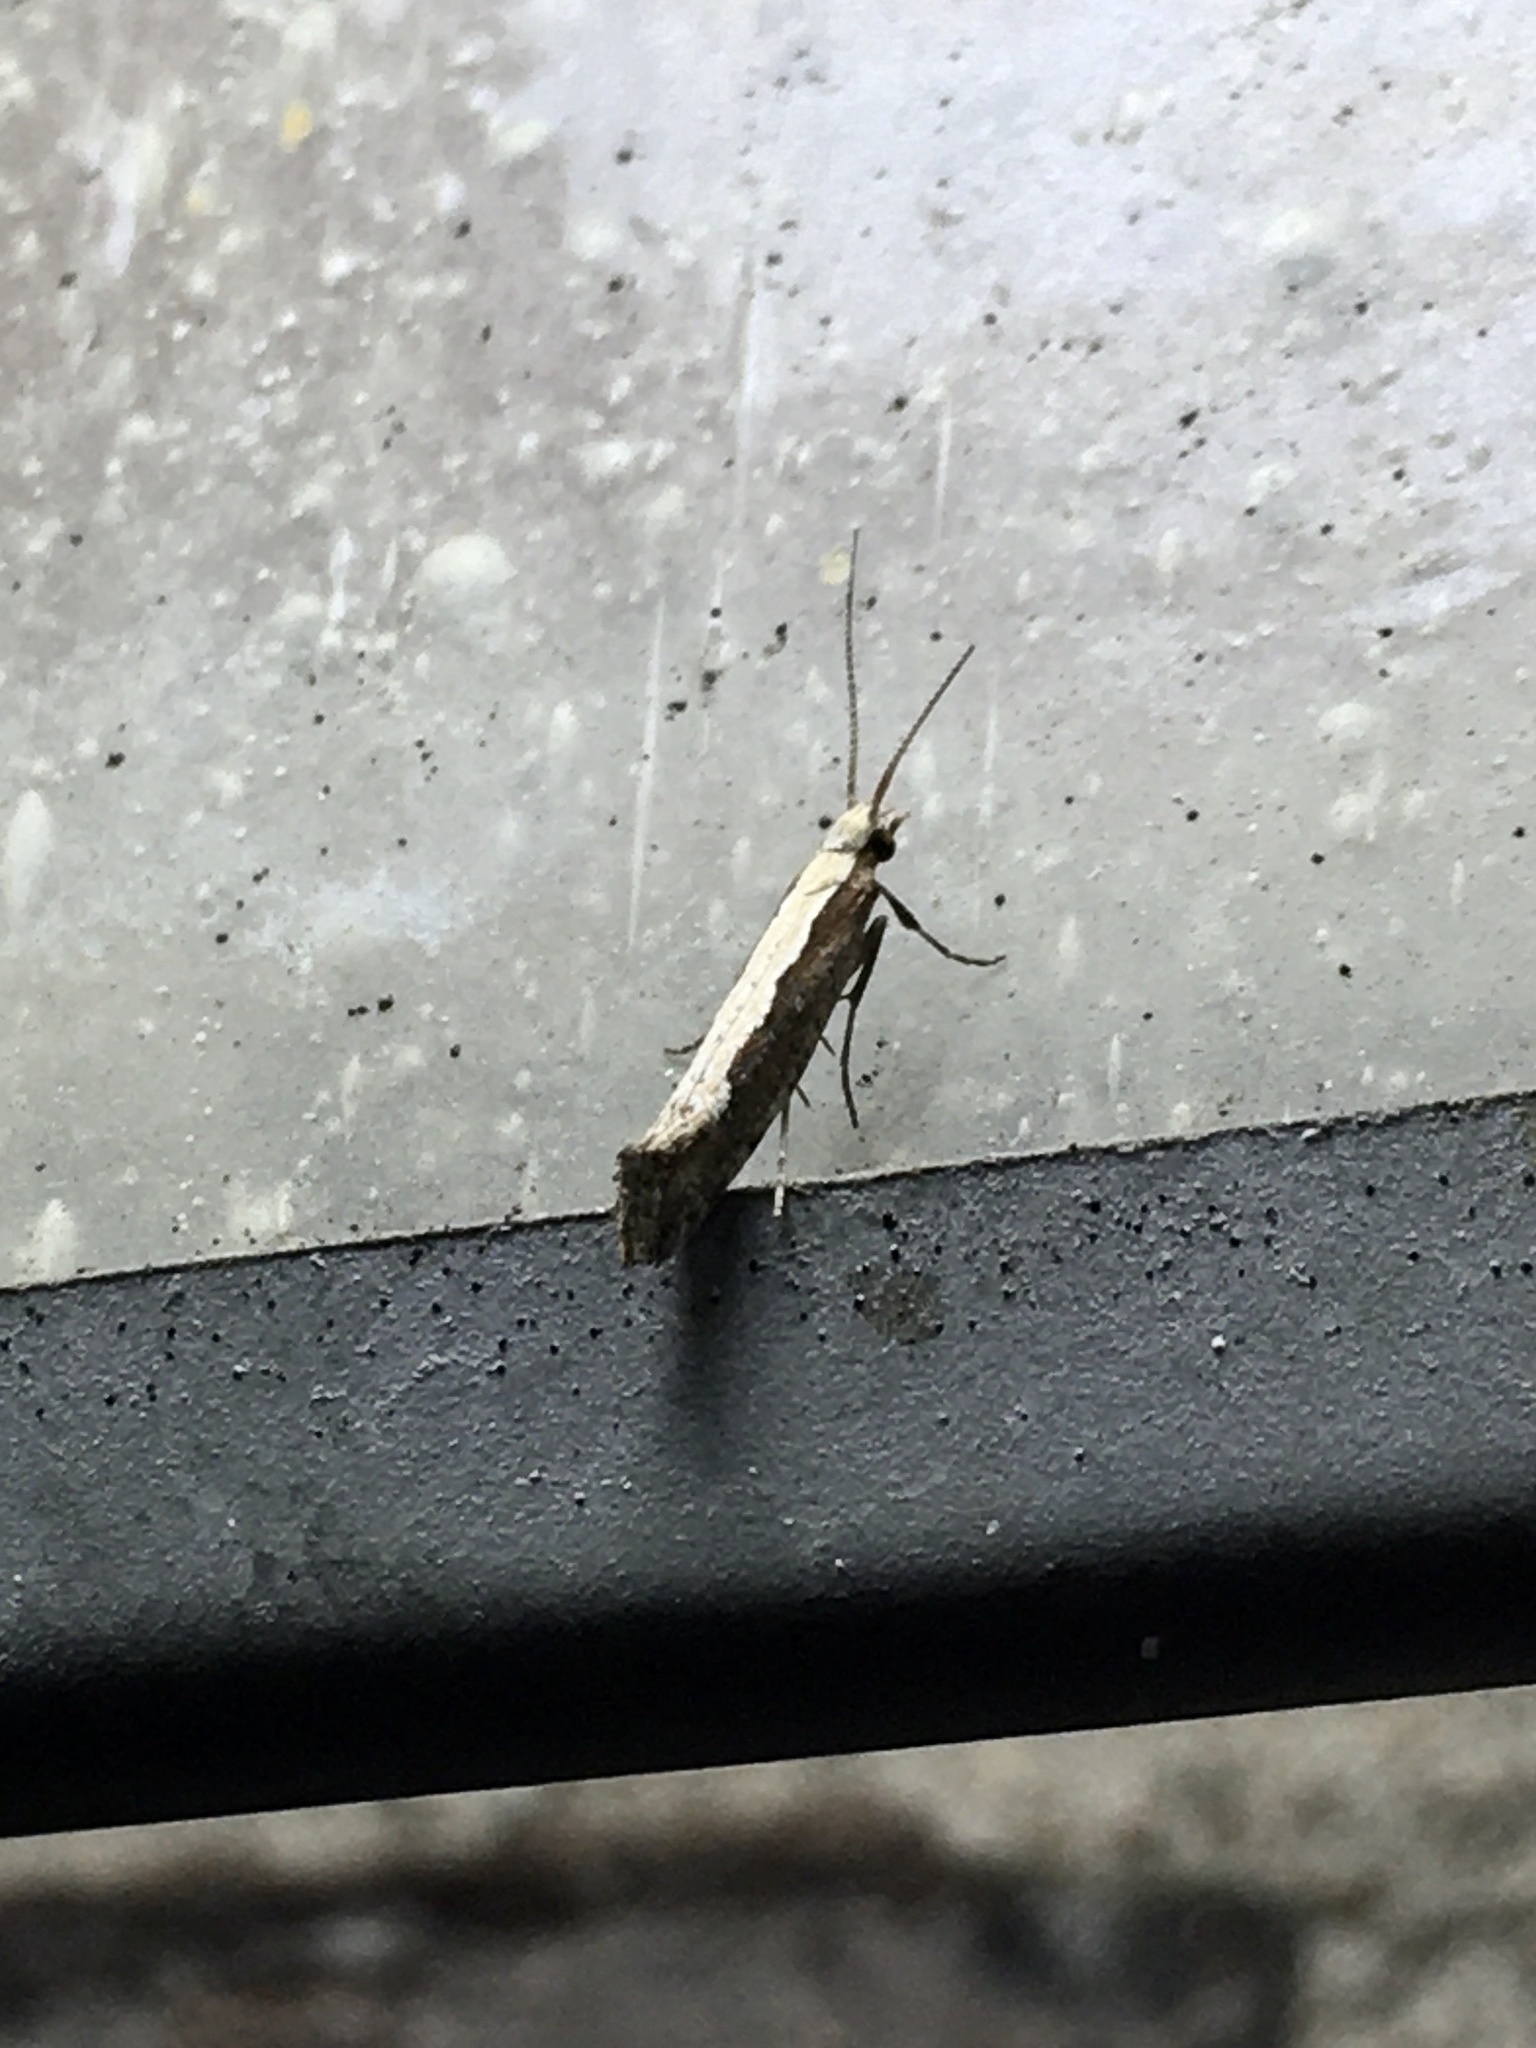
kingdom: Animalia
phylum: Arthropoda
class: Insecta
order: Lepidoptera
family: Plutellidae
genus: Plutella
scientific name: Plutella xylostella
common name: Diamond-back moth
